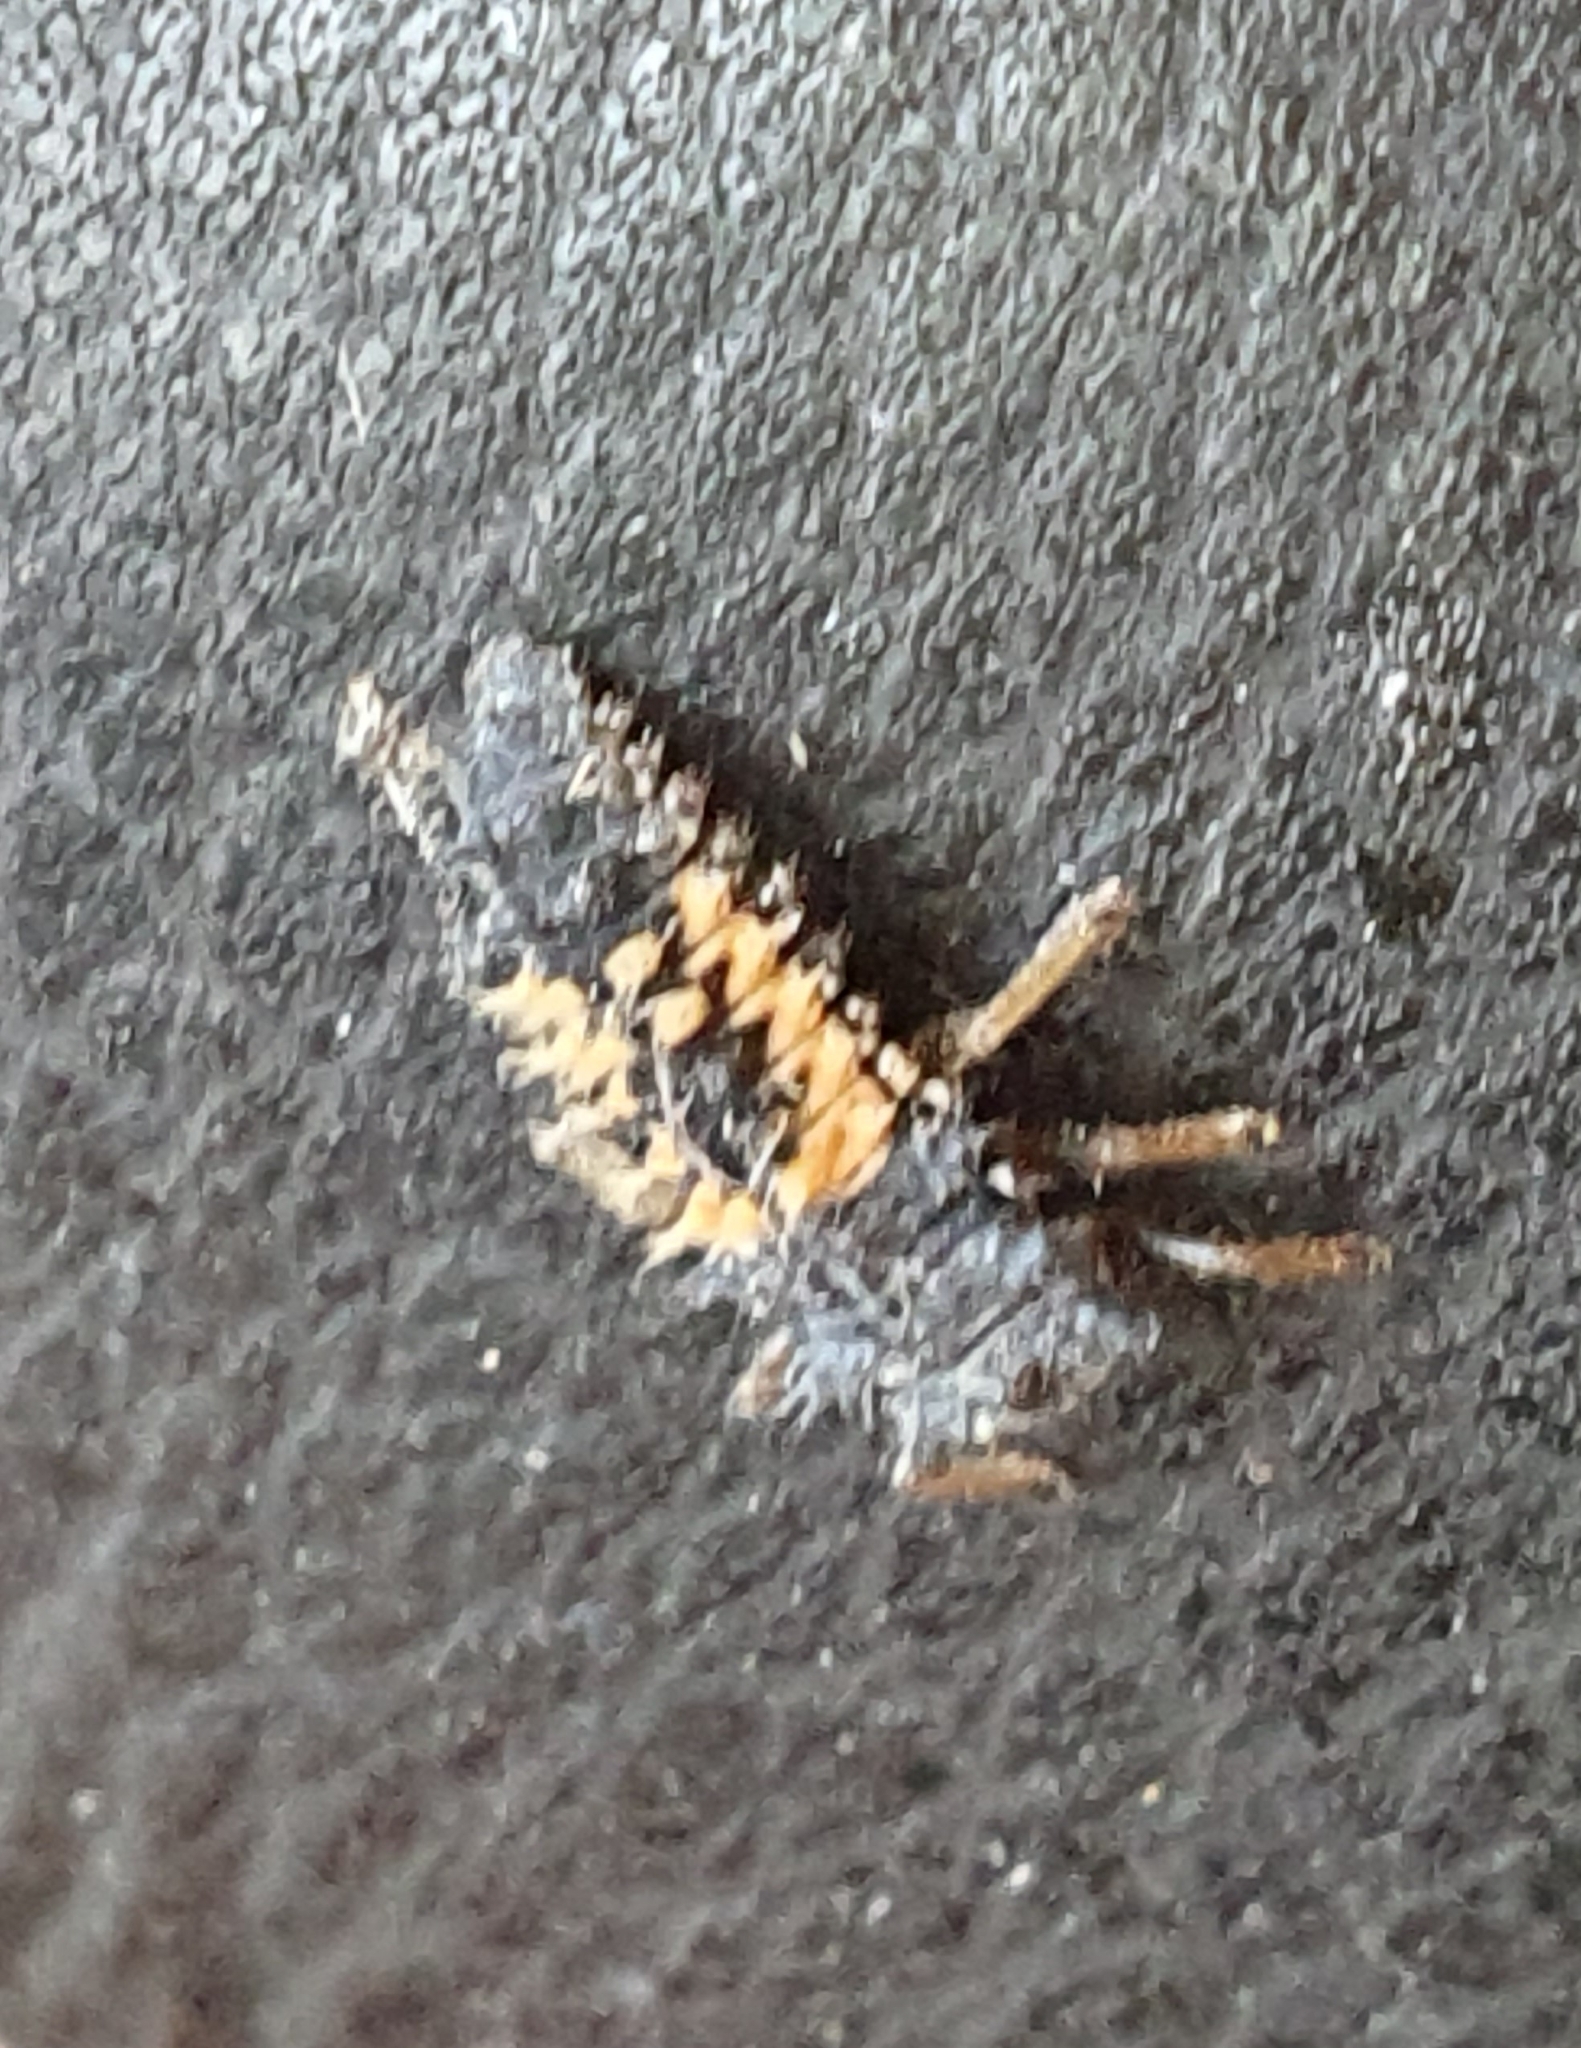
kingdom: Animalia
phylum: Arthropoda
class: Insecta
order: Coleoptera
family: Coccinellidae
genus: Harmonia
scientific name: Harmonia axyridis
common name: Harlequin ladybird
